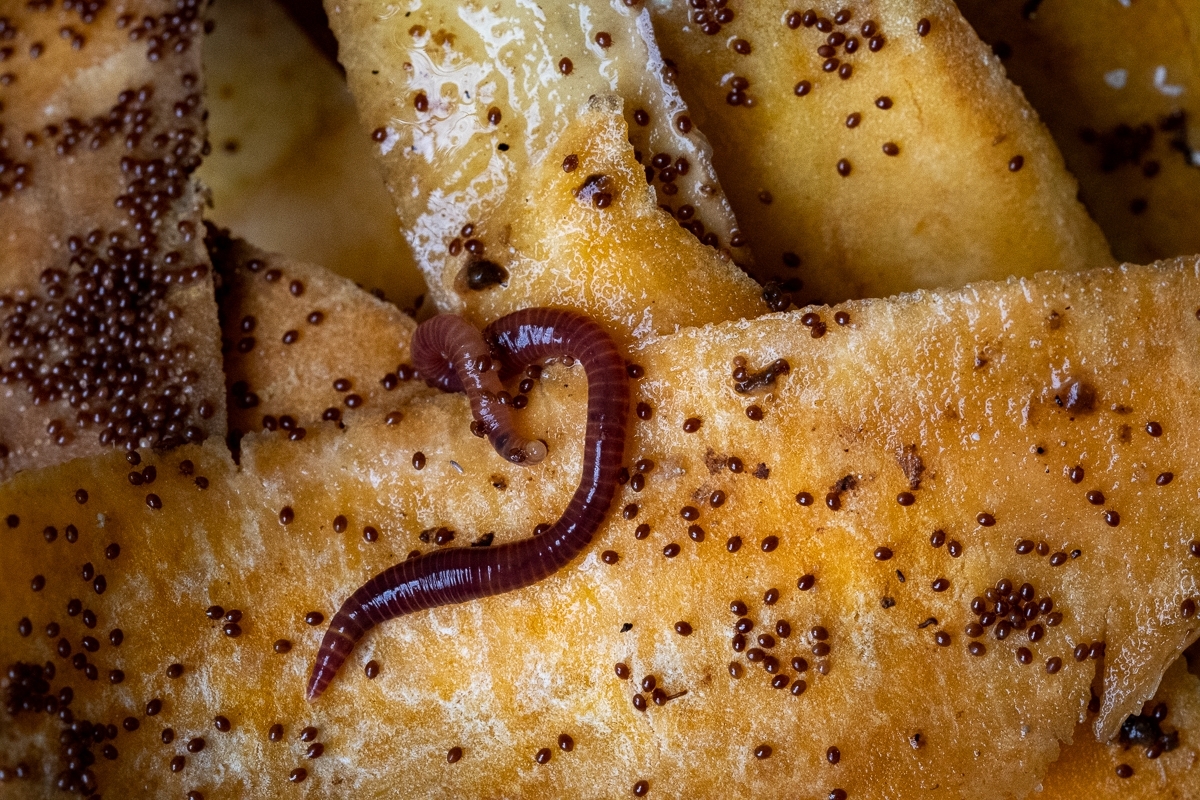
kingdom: Animalia
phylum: Annelida
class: Clitellata
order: Crassiclitellata
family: Lumbricidae
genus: Eisenia
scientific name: Eisenia fetida
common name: Red wiggler
